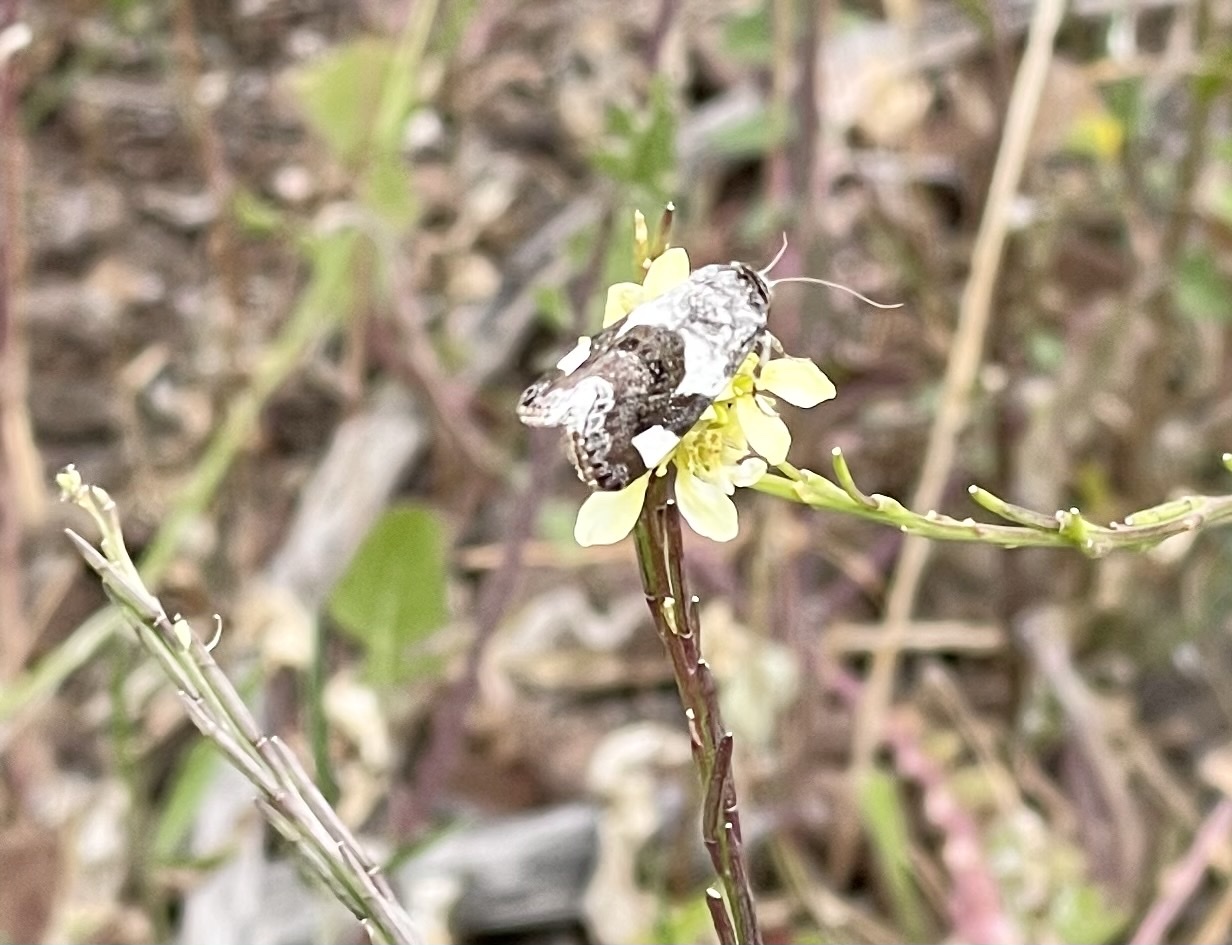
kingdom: Animalia
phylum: Arthropoda
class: Insecta
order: Lepidoptera
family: Noctuidae
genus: Acontia
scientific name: Acontia lucida
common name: Pale shoulder
